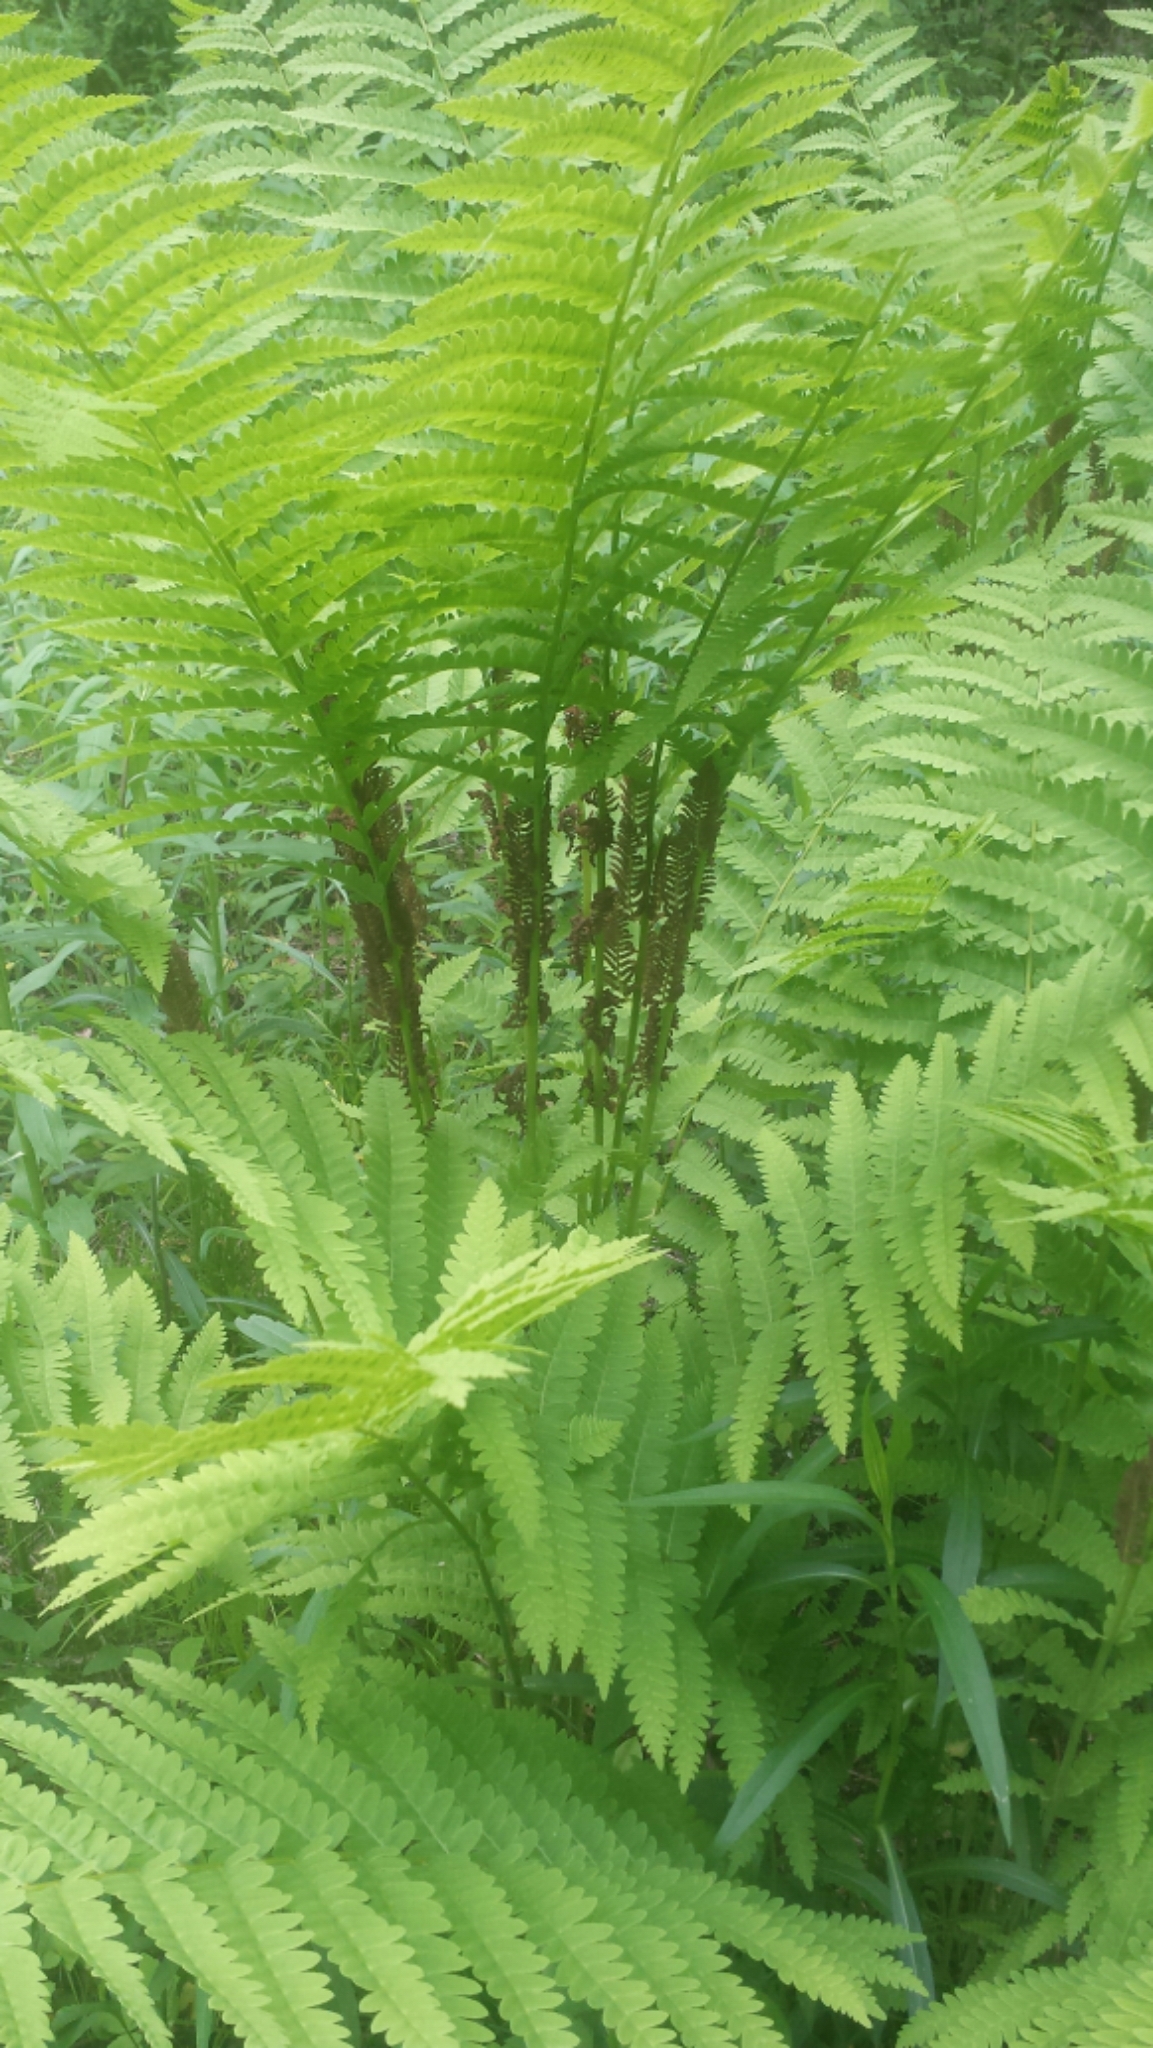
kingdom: Plantae
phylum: Tracheophyta
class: Polypodiopsida
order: Osmundales
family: Osmundaceae
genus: Claytosmunda
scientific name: Claytosmunda claytoniana
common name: Clayton's fern
